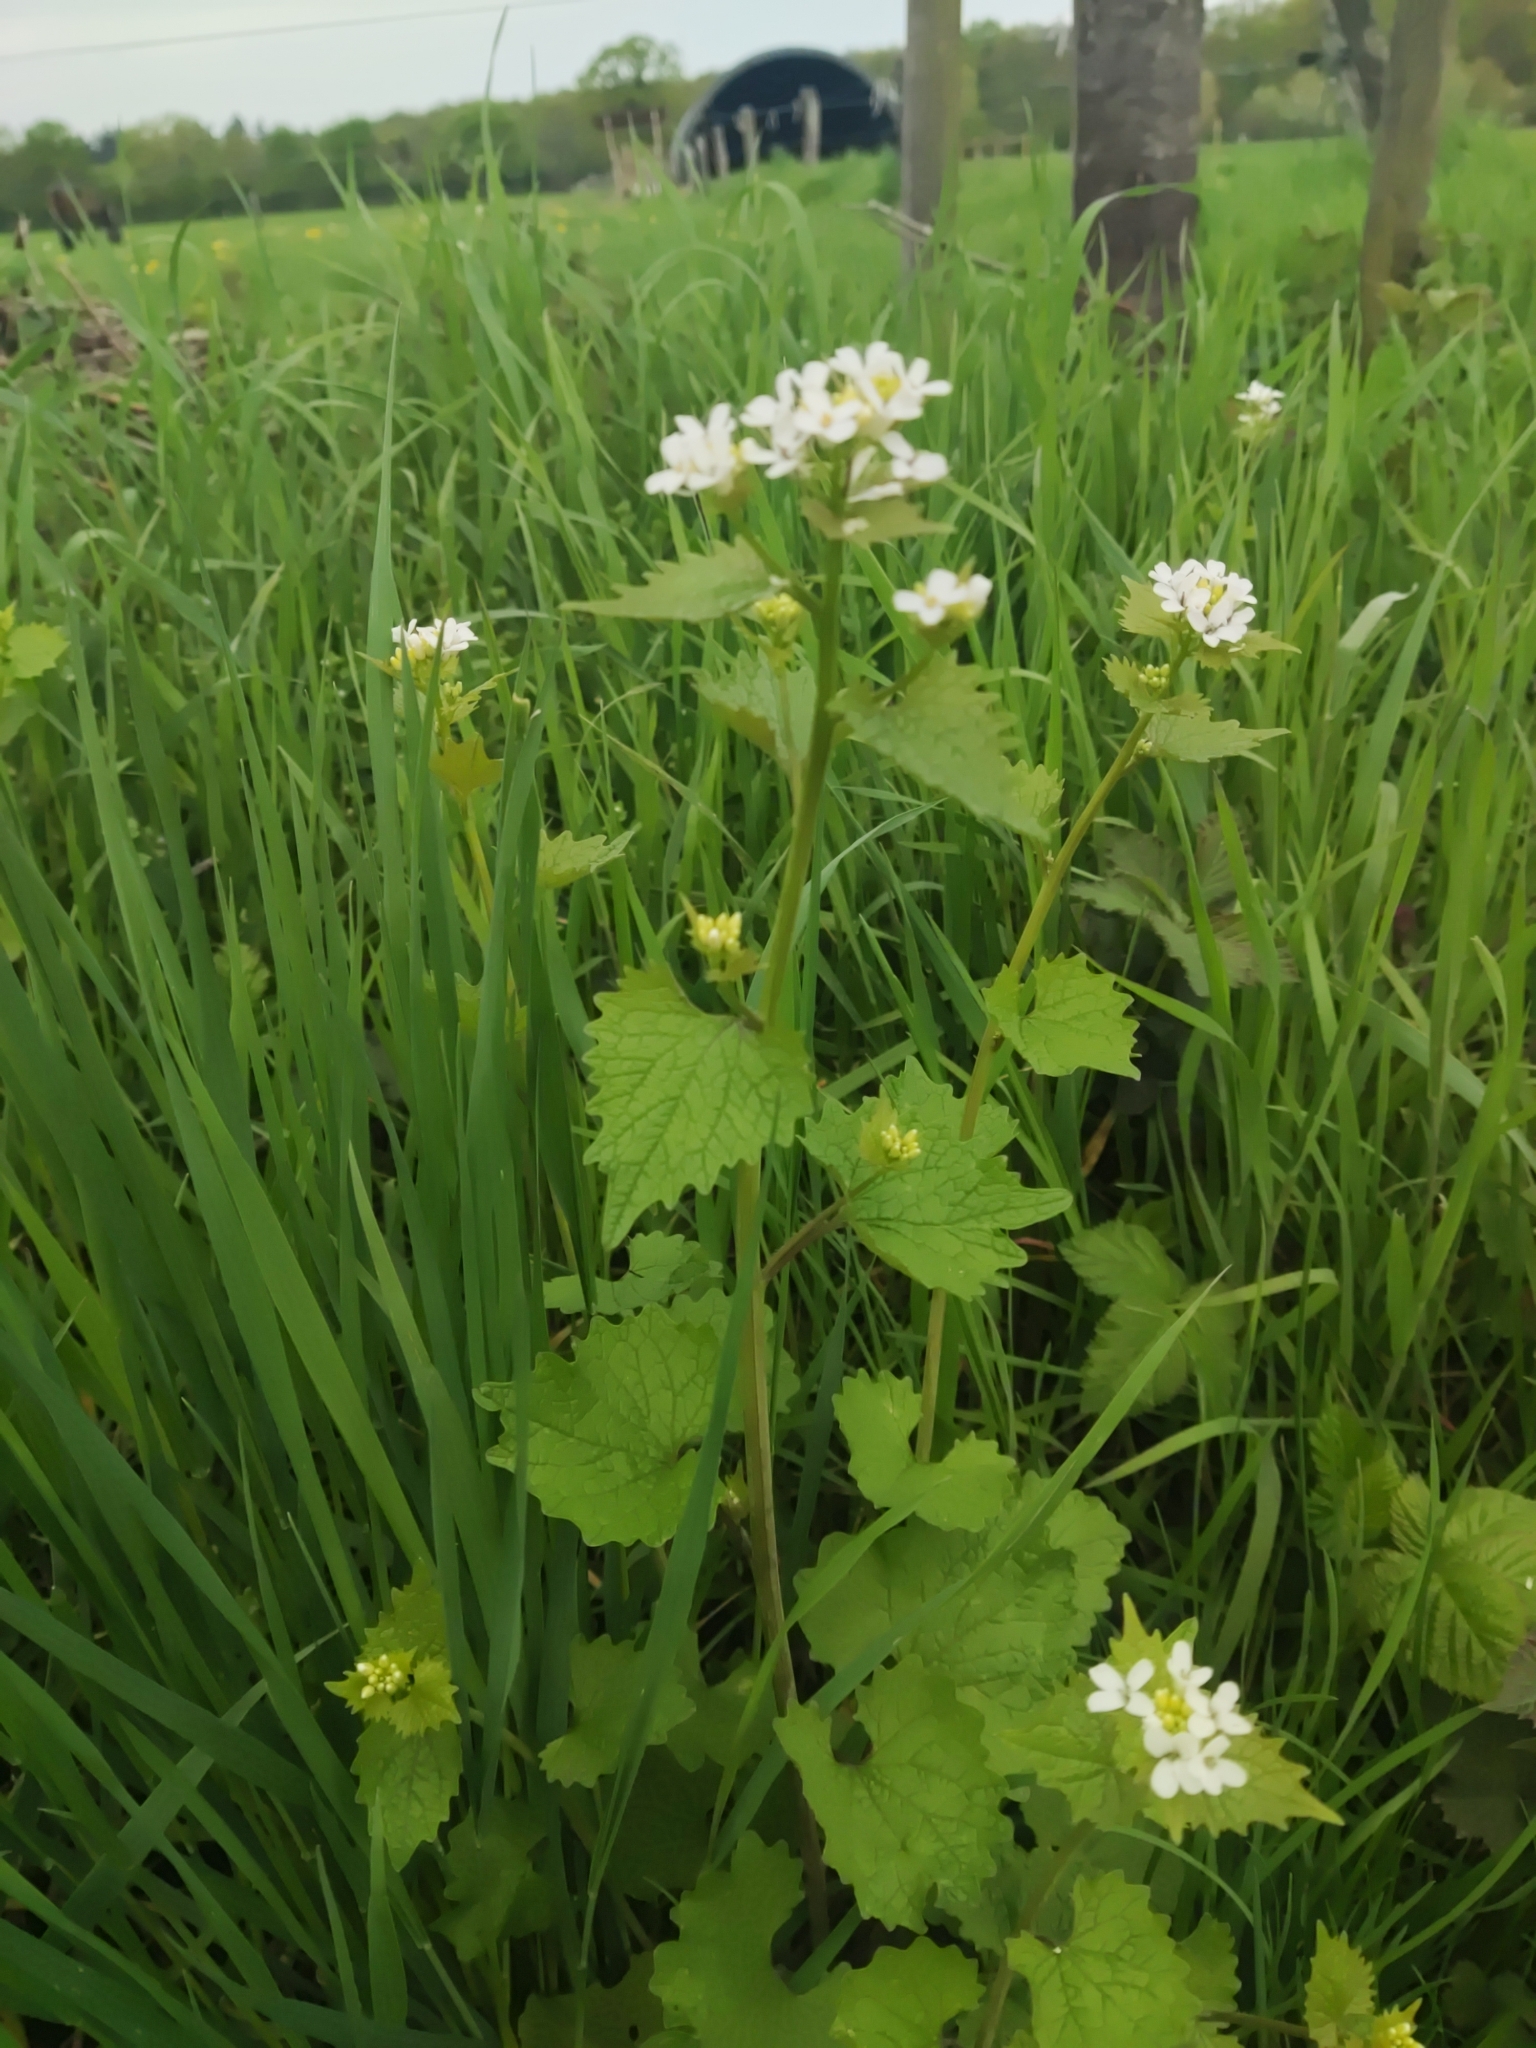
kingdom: Plantae
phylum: Tracheophyta
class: Magnoliopsida
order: Brassicales
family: Brassicaceae
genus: Alliaria
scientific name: Alliaria petiolata
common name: Garlic mustard
